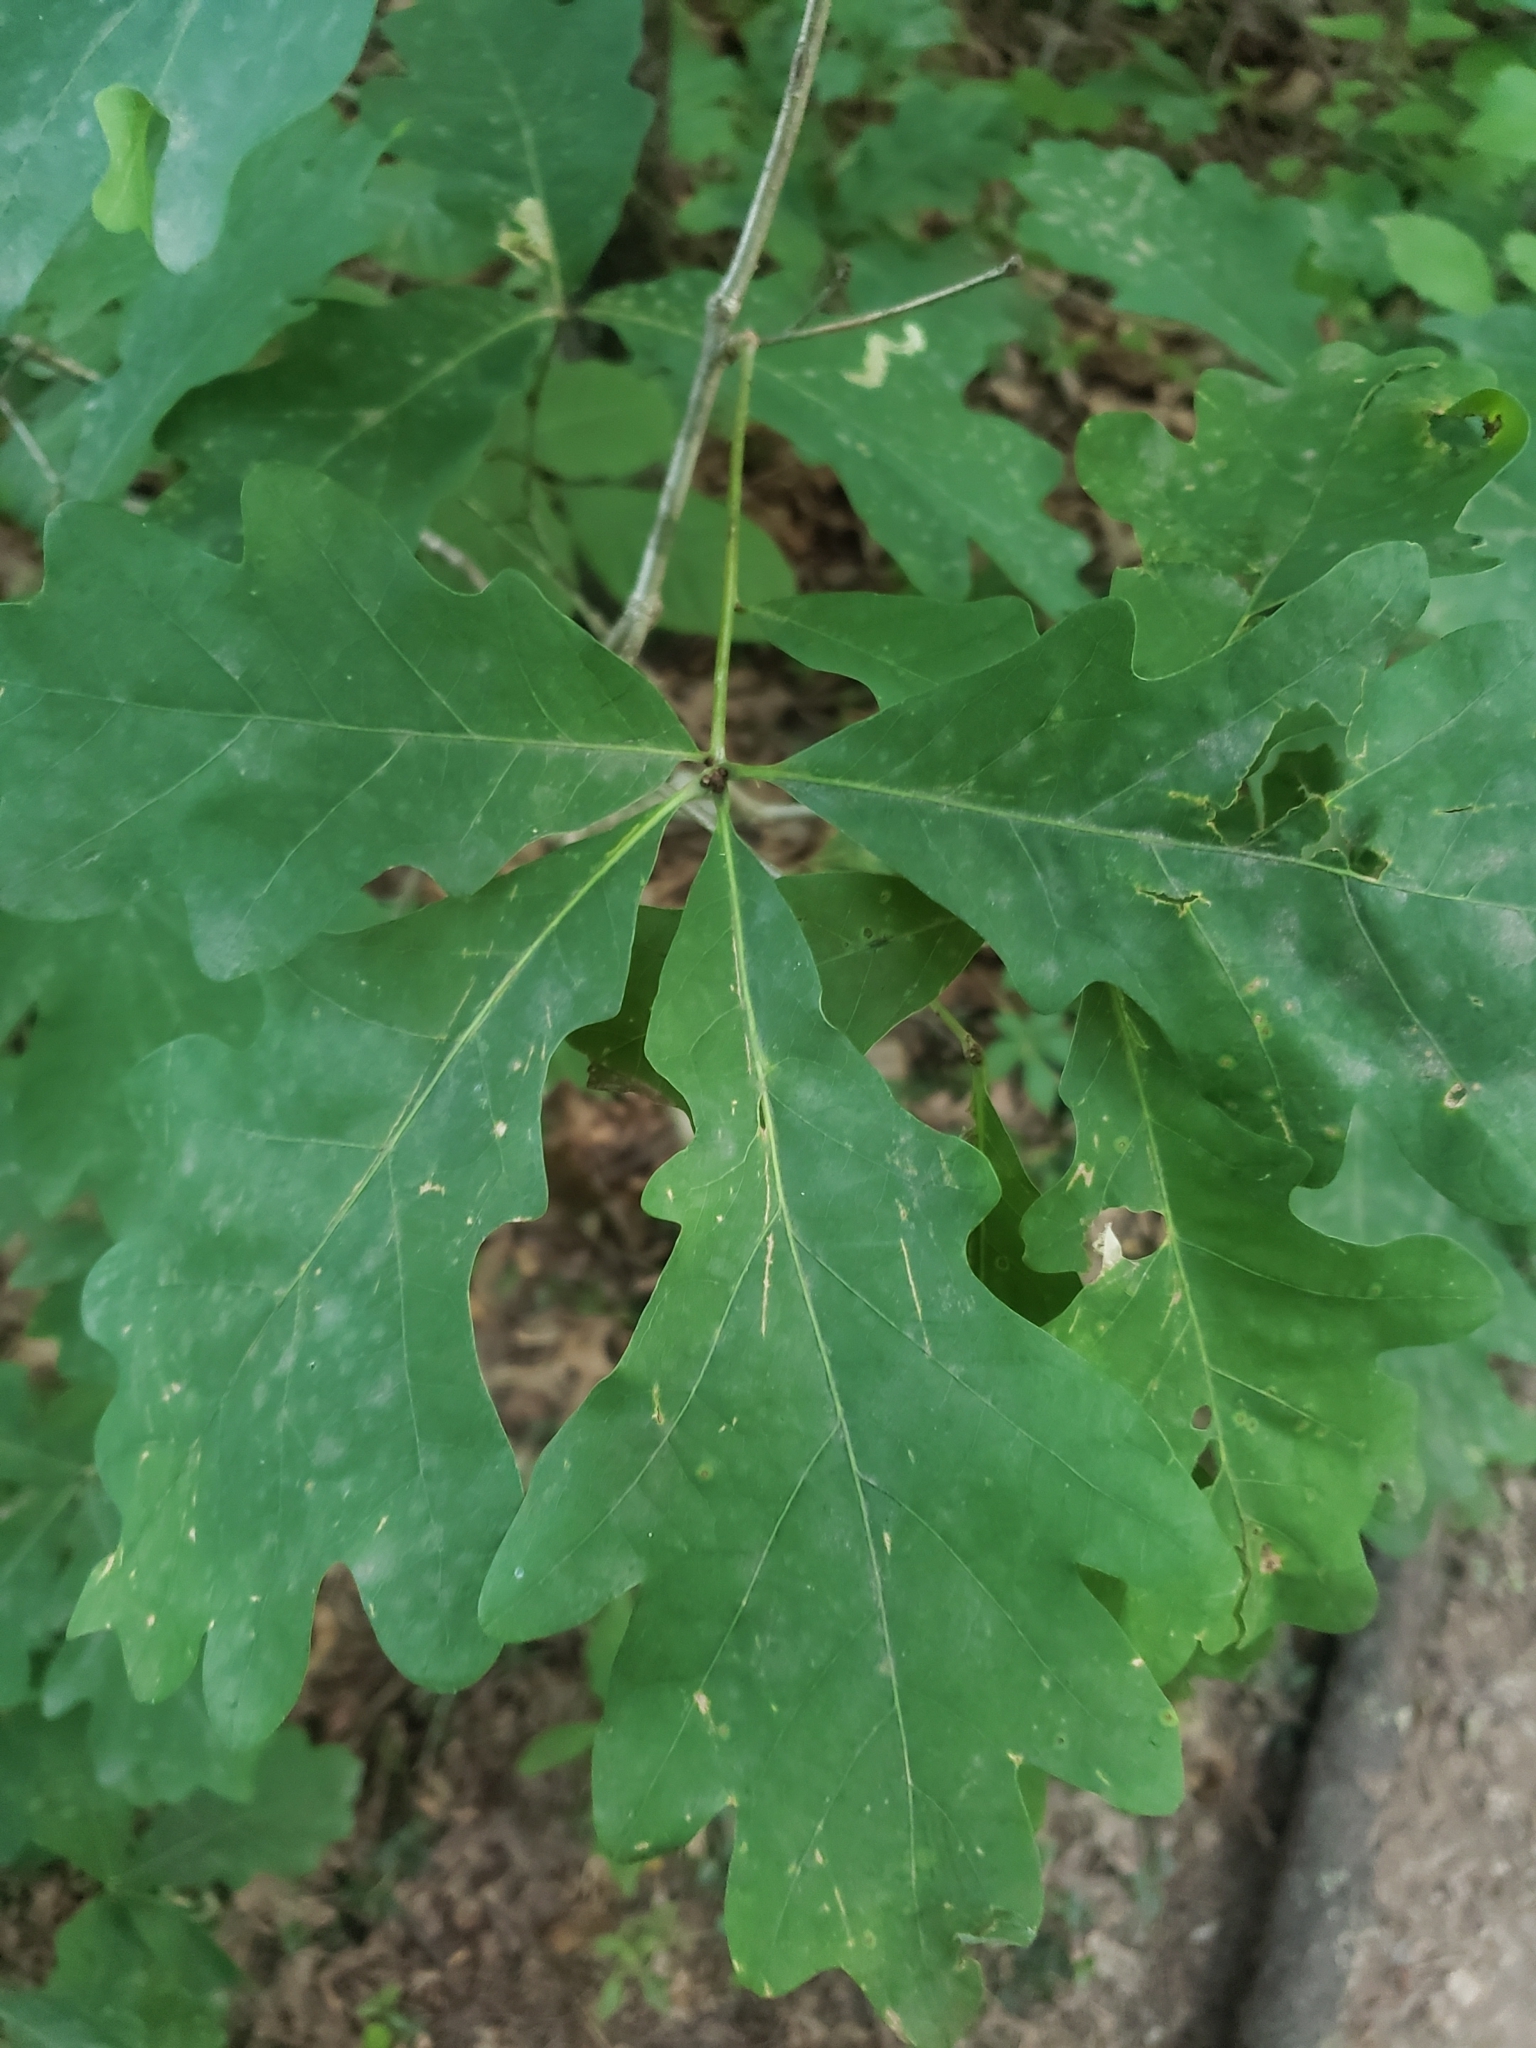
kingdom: Animalia
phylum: Arthropoda
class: Insecta
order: Hymenoptera
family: Cynipidae
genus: Loxaulus
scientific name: Loxaulus
